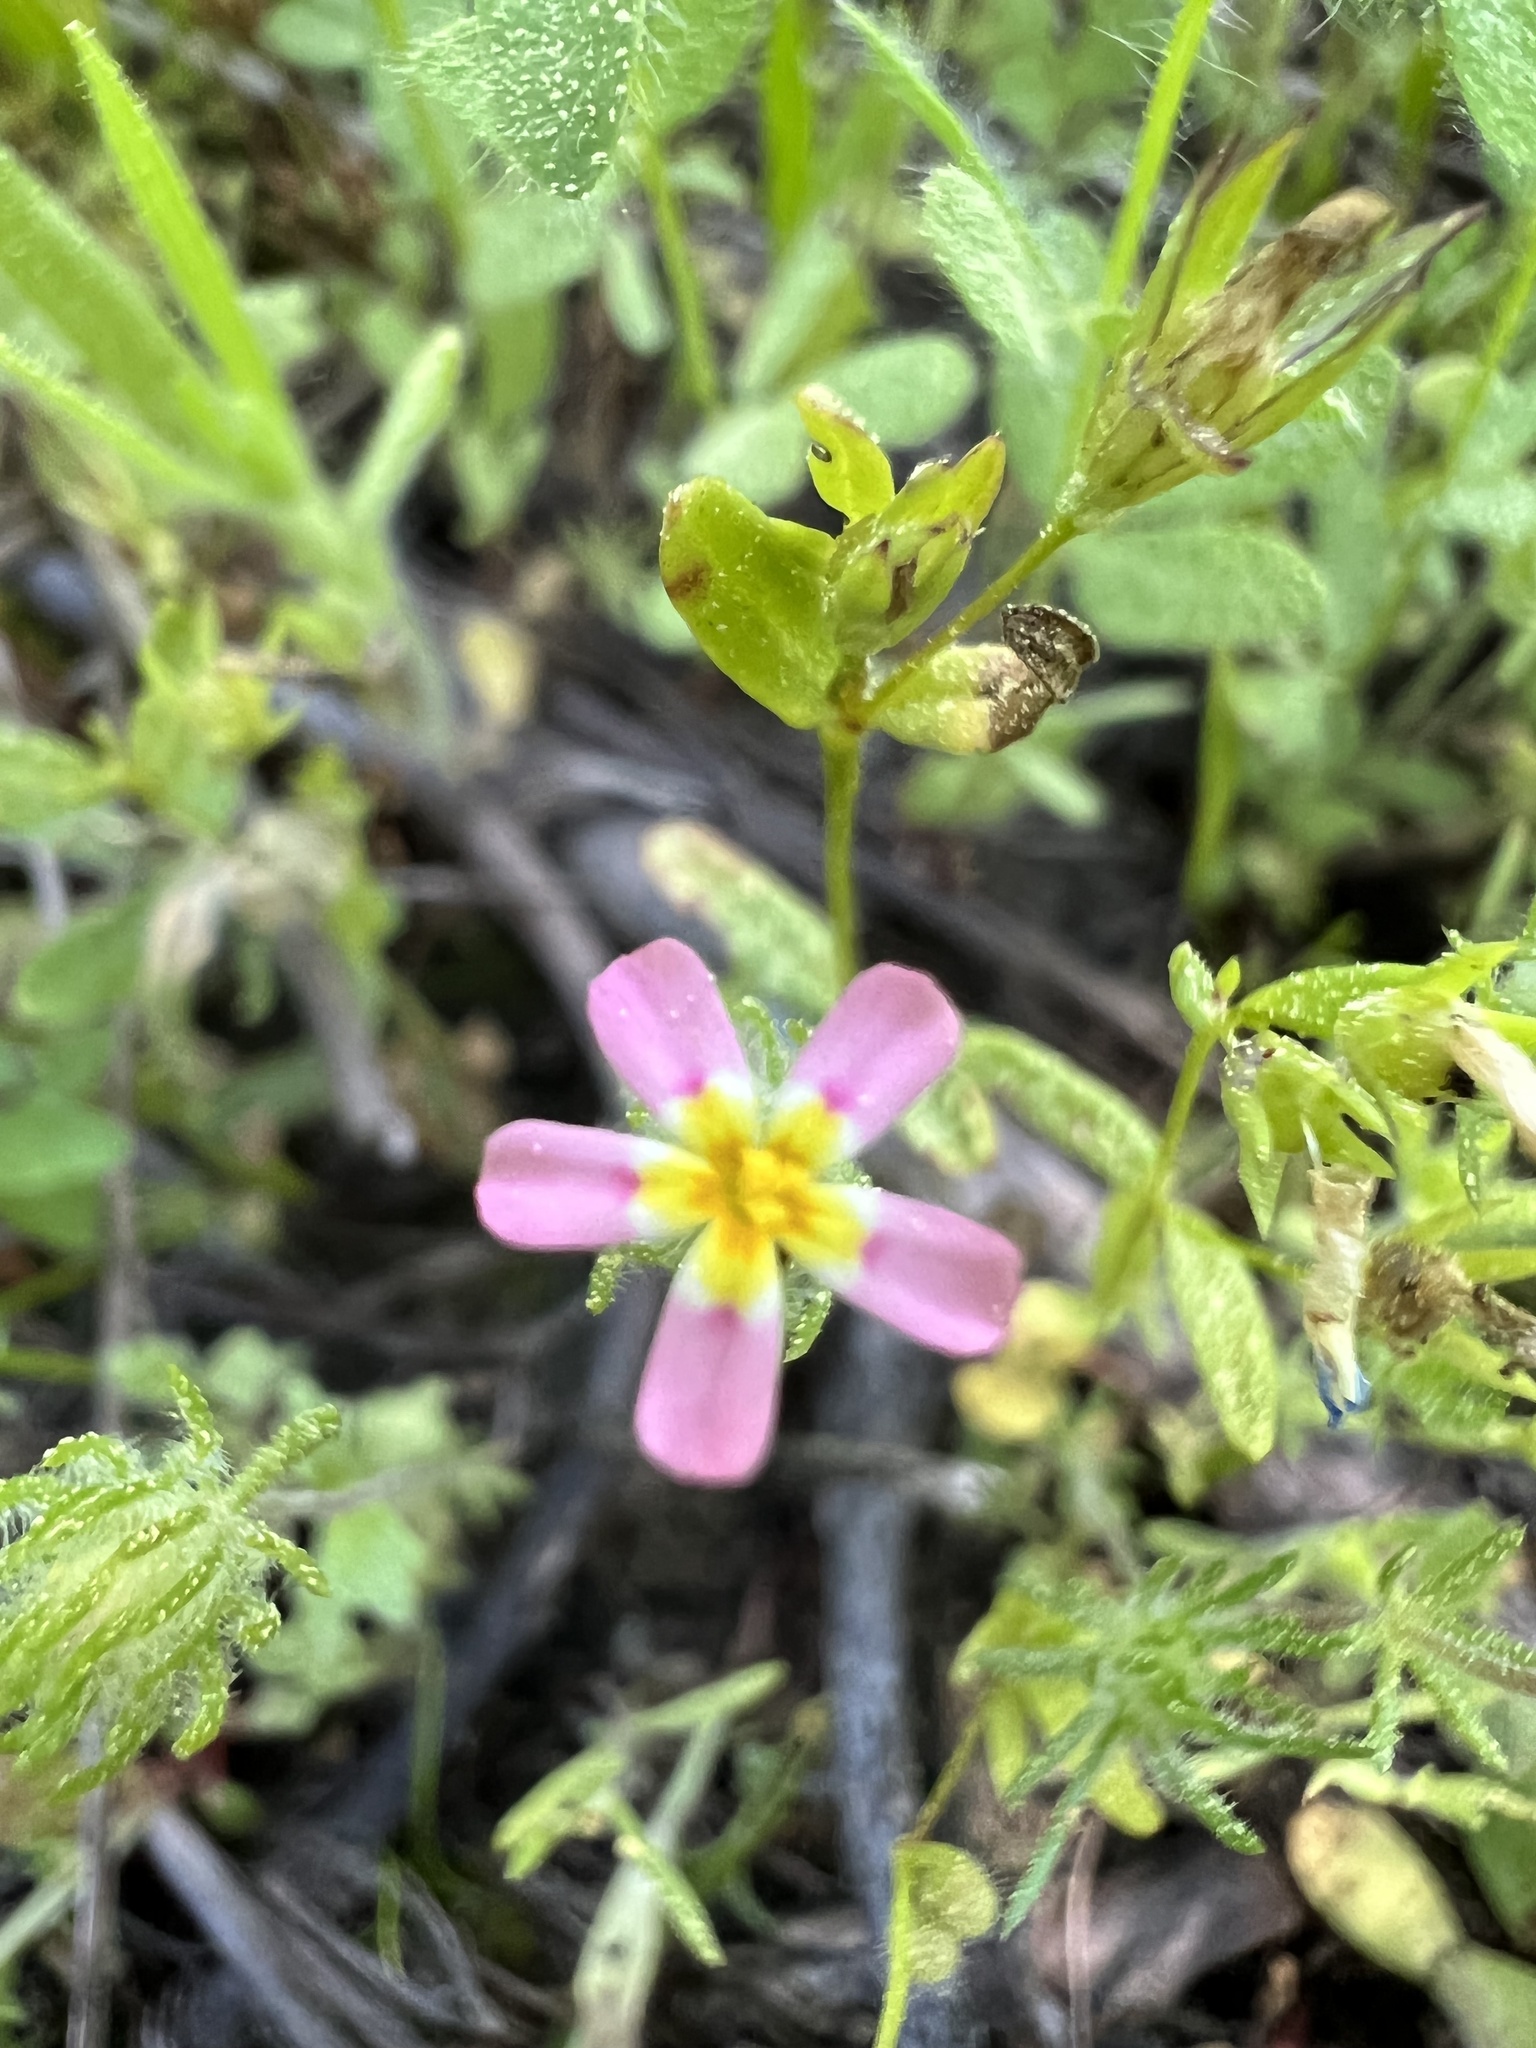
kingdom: Plantae
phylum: Tracheophyta
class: Magnoliopsida
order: Ericales
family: Polemoniaceae
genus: Leptosiphon
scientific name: Leptosiphon ciliatus
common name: Whiskerbrush
